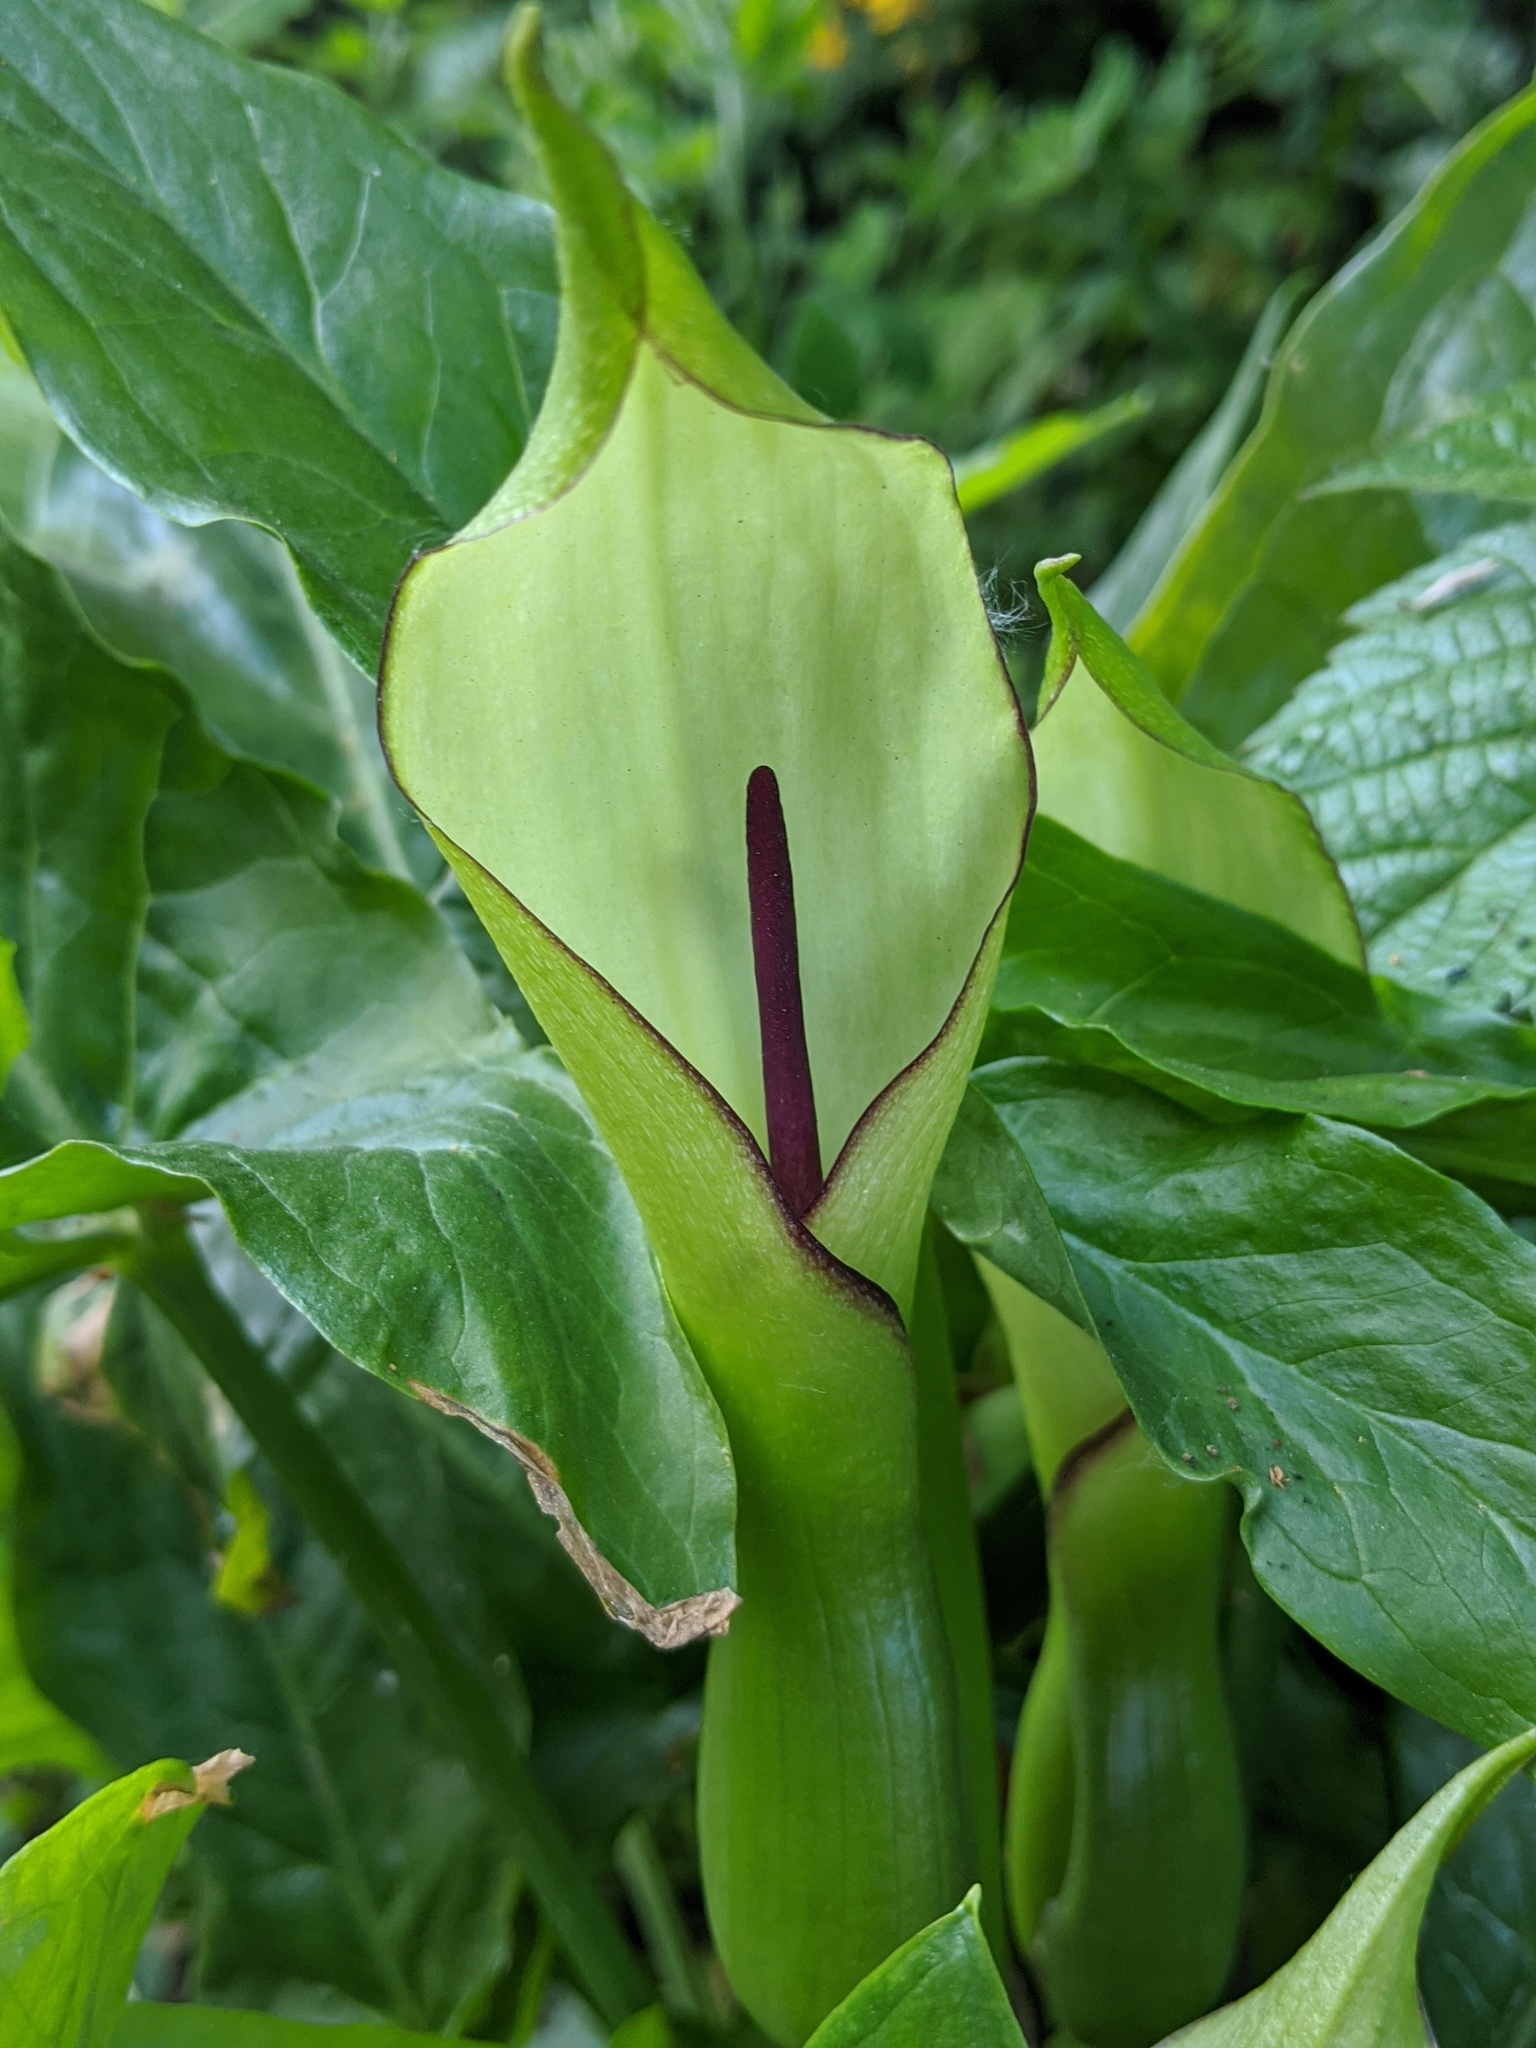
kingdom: Plantae
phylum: Tracheophyta
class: Liliopsida
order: Alismatales
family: Araceae
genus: Arum
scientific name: Arum hygrophilum
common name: Water arum
